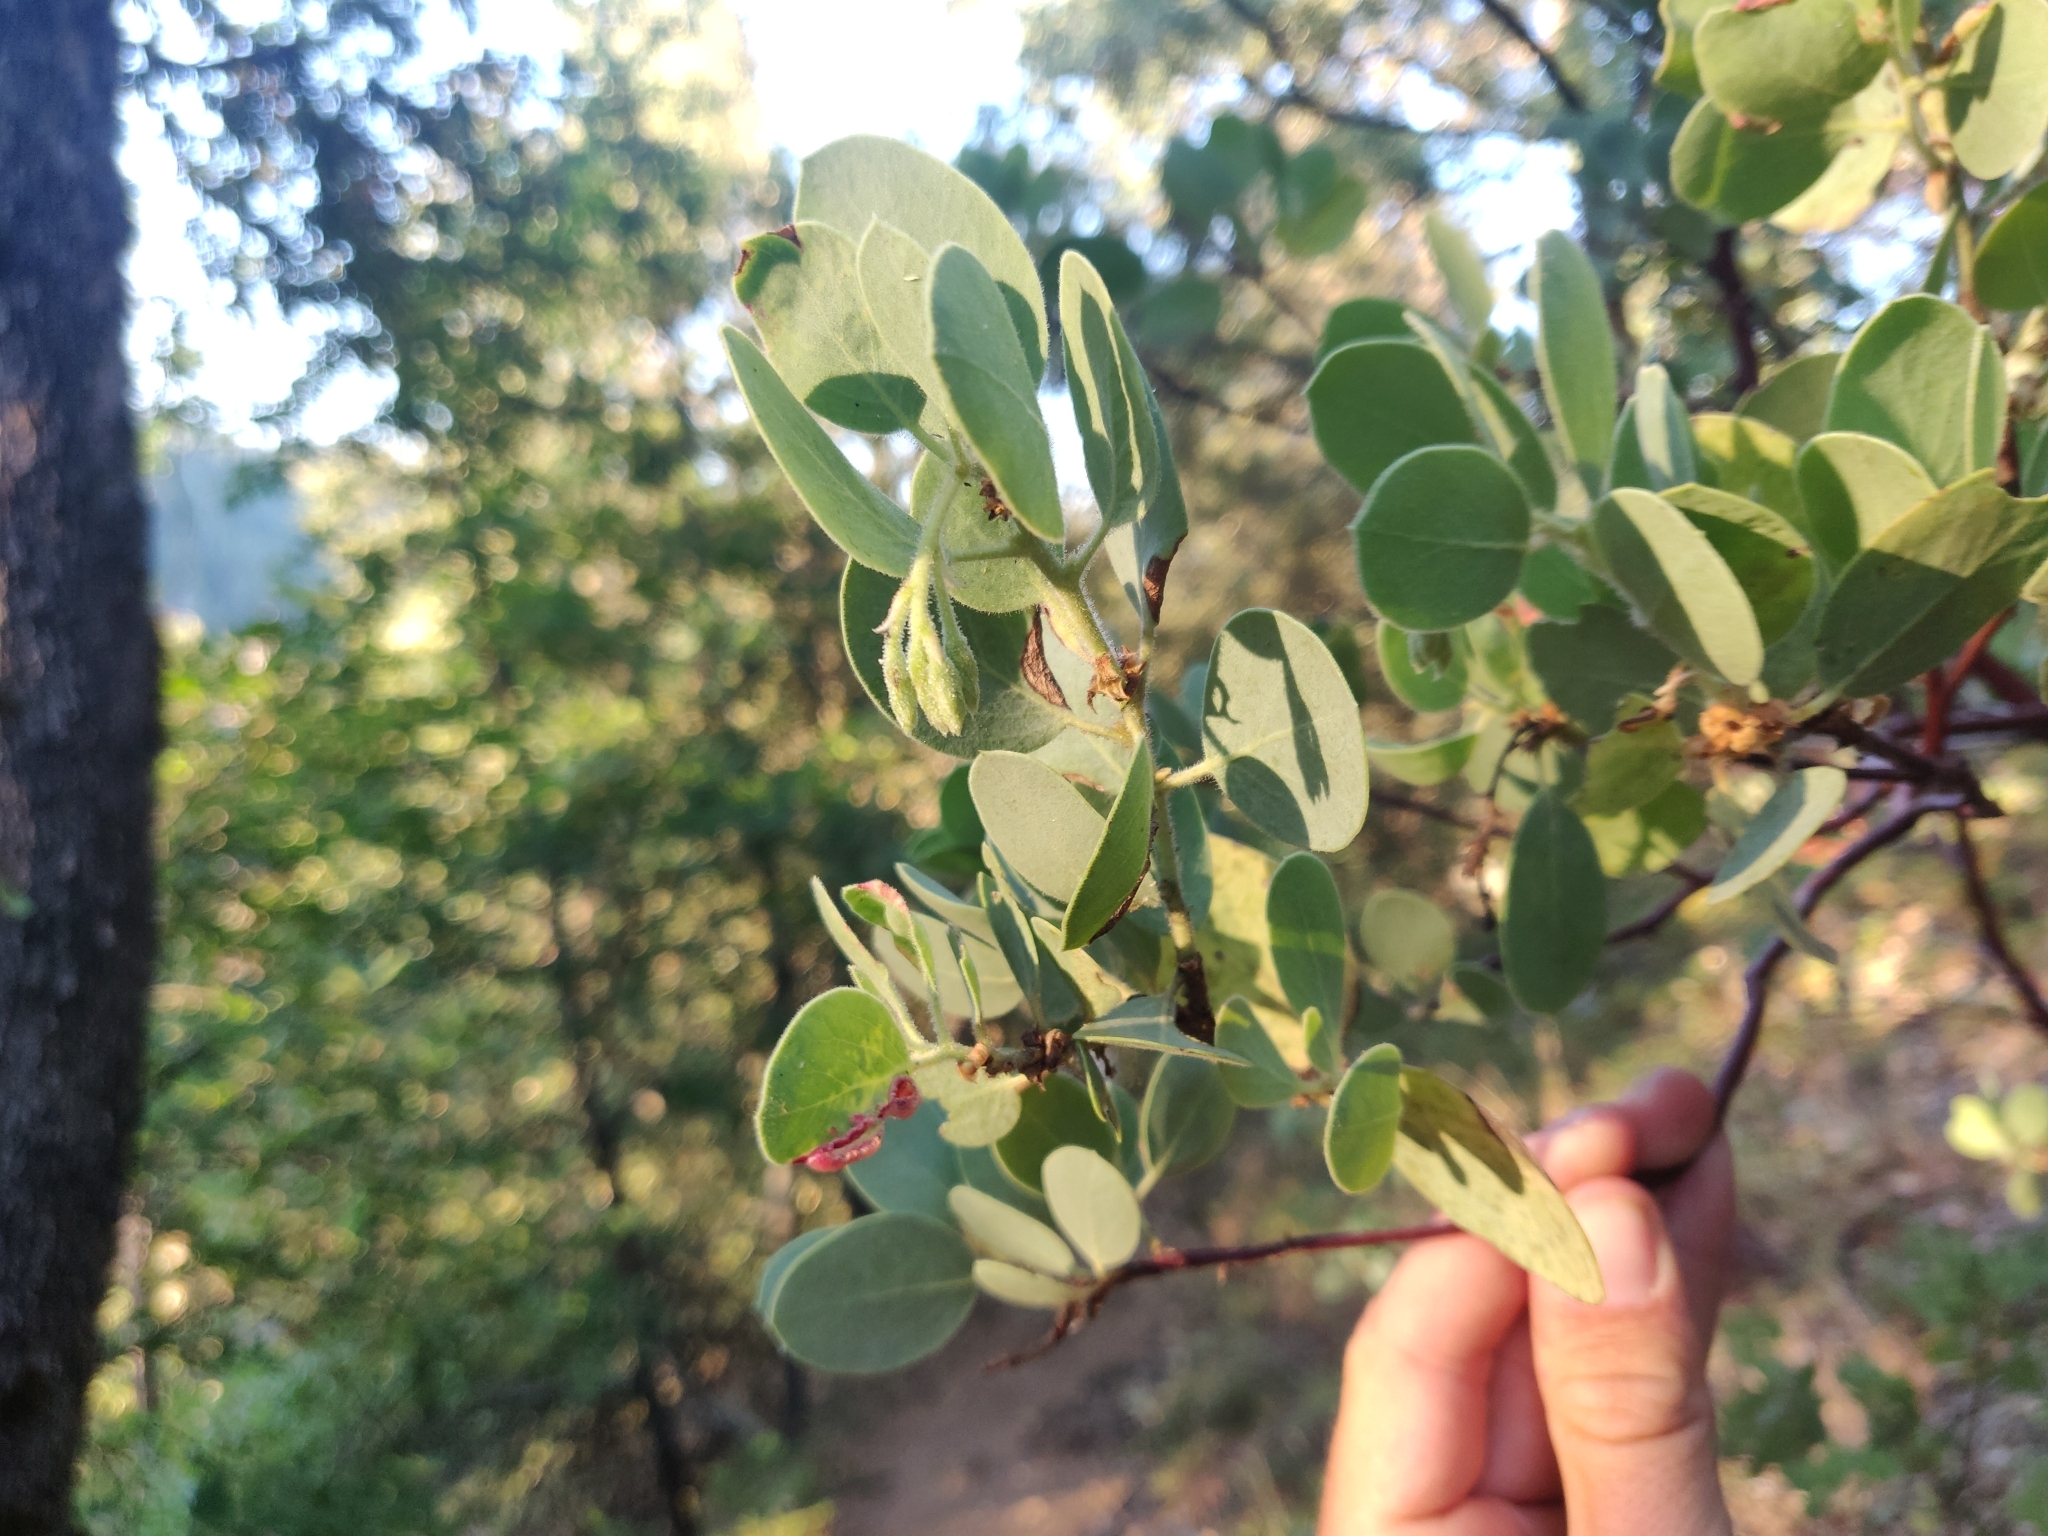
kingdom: Plantae
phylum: Tracheophyta
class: Magnoliopsida
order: Ericales
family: Ericaceae
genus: Arctostaphylos
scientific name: Arctostaphylos viscida
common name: White-leaf manzanita
